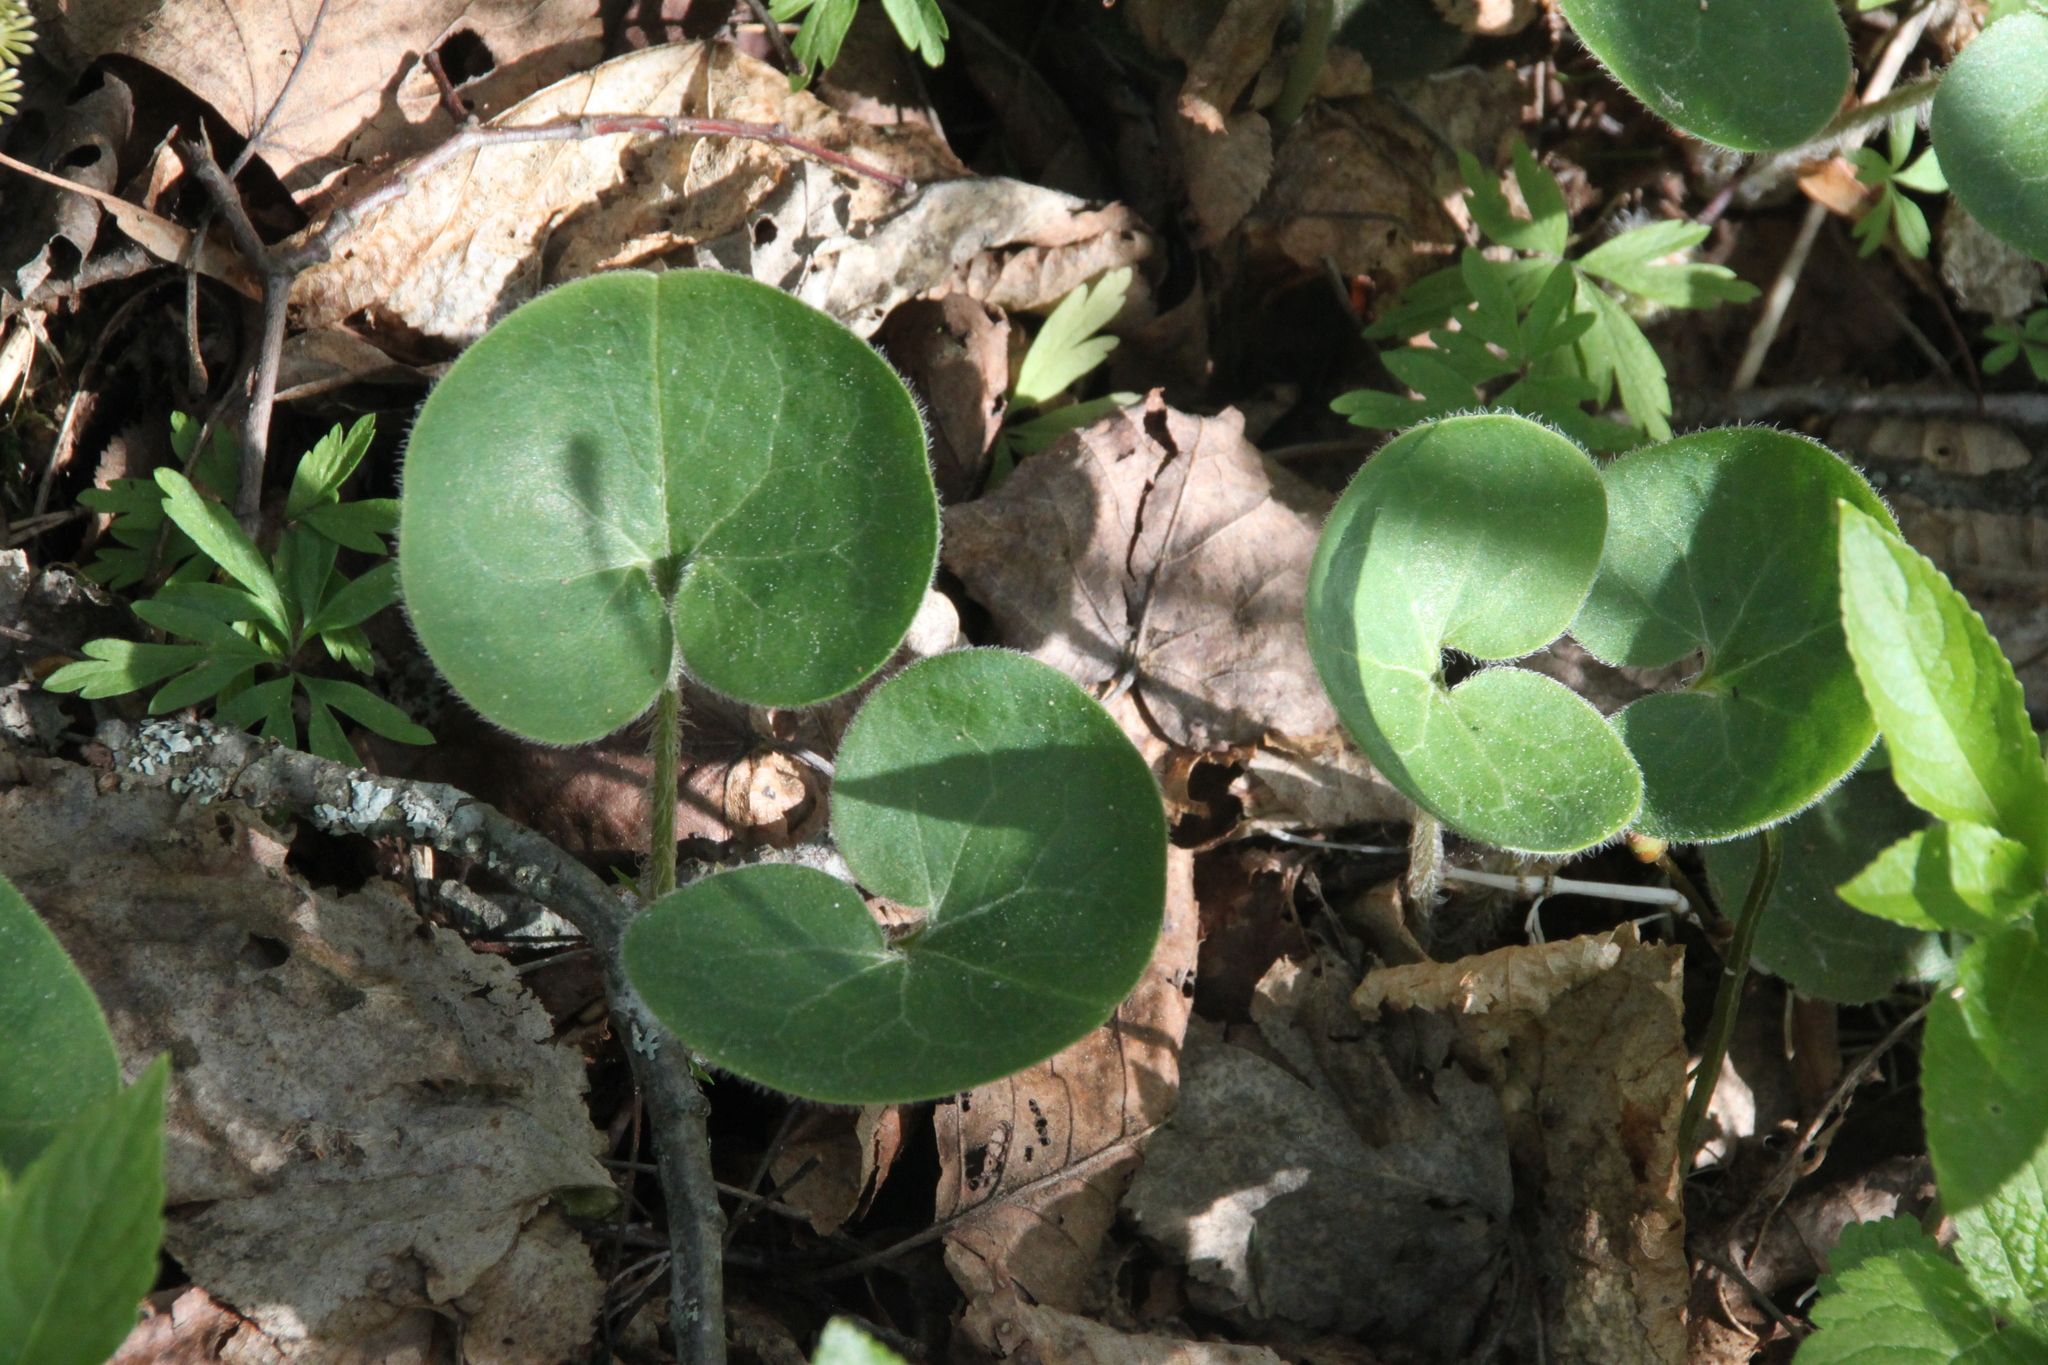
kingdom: Plantae
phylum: Tracheophyta
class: Magnoliopsida
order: Piperales
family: Aristolochiaceae
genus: Asarum
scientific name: Asarum europaeum
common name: Asarabacca
